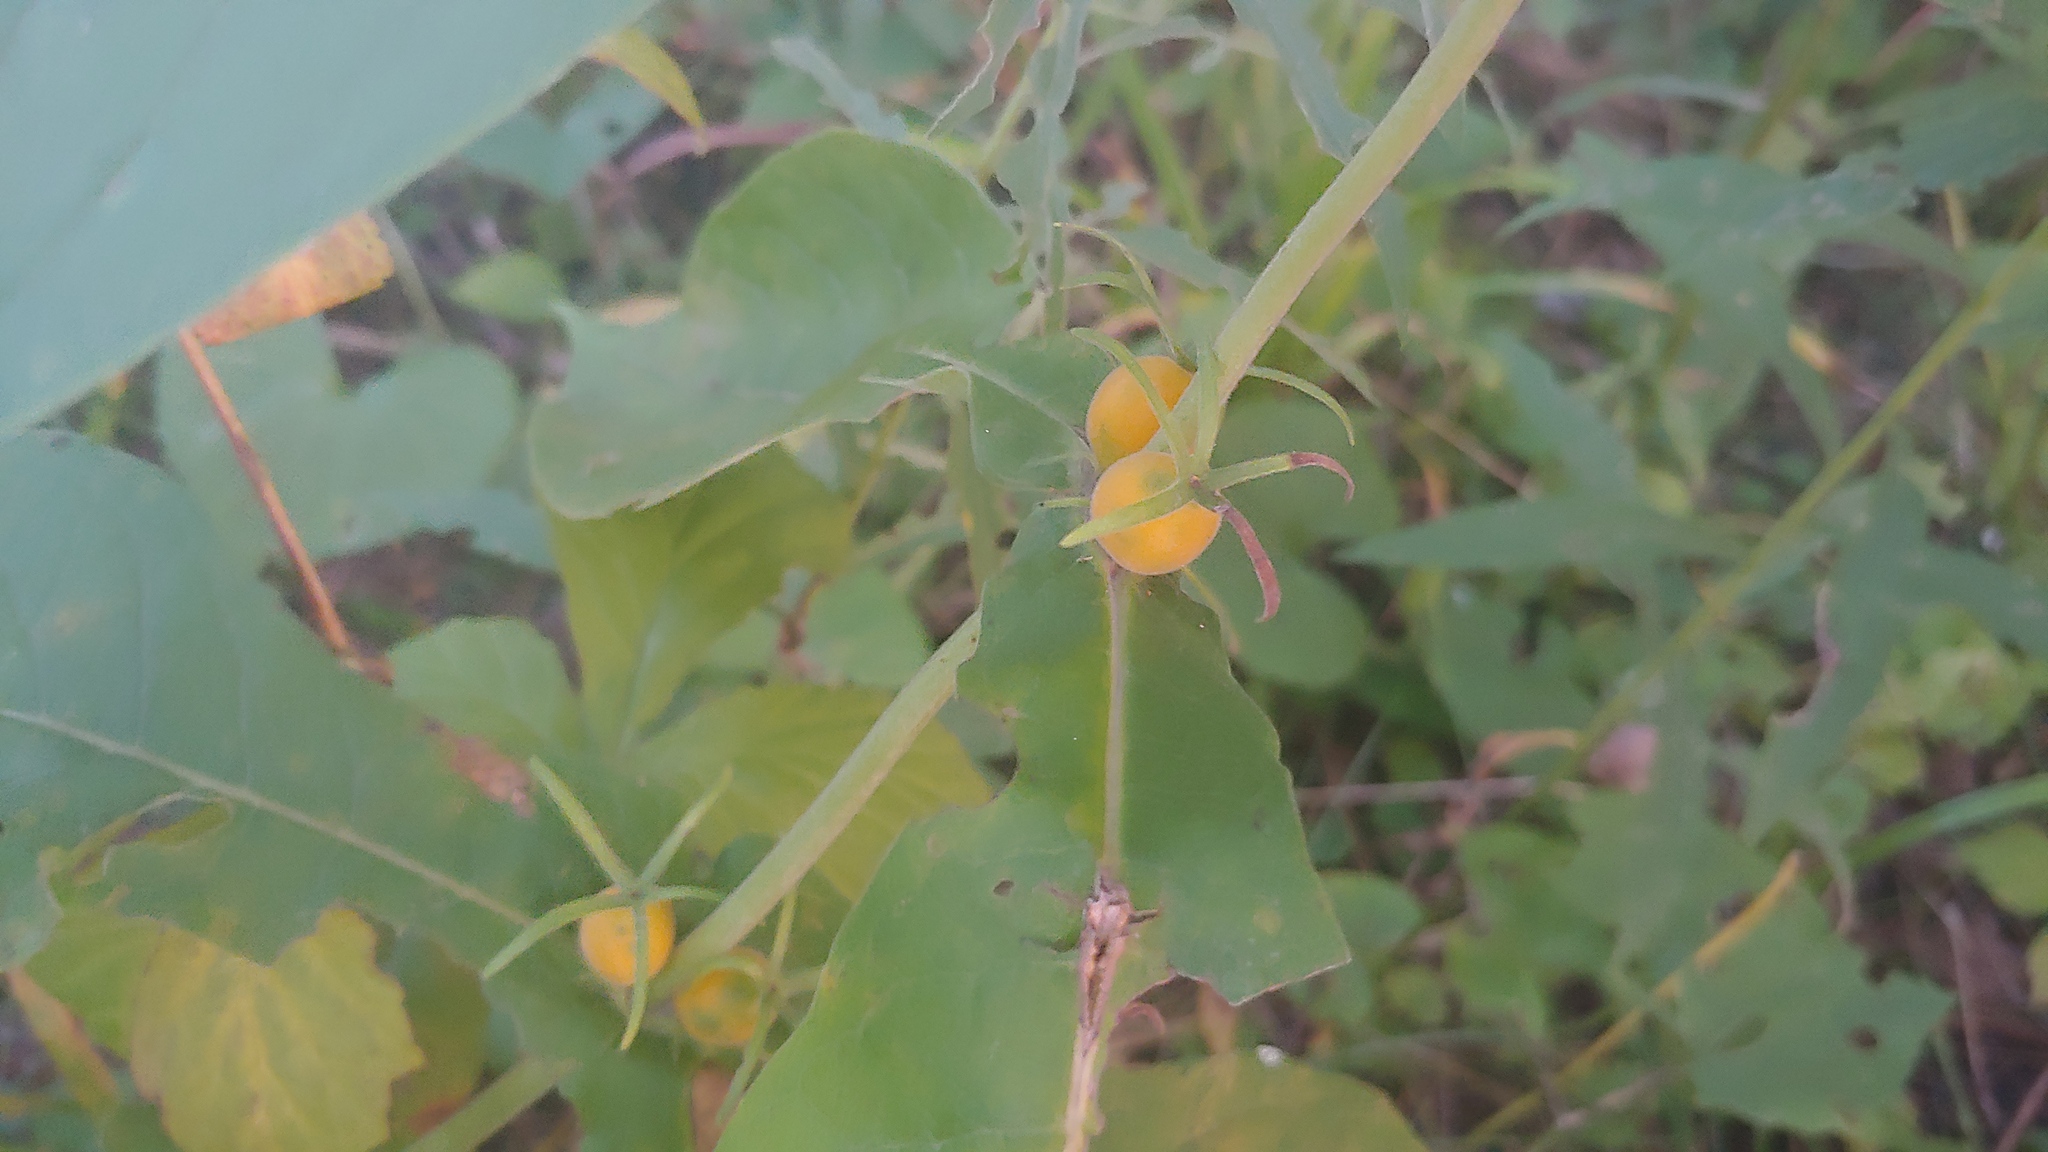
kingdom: Plantae
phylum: Tracheophyta
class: Magnoliopsida
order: Dipsacales
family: Caprifoliaceae
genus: Triosteum
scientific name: Triosteum perfoliatum
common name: Common horse-gentian
